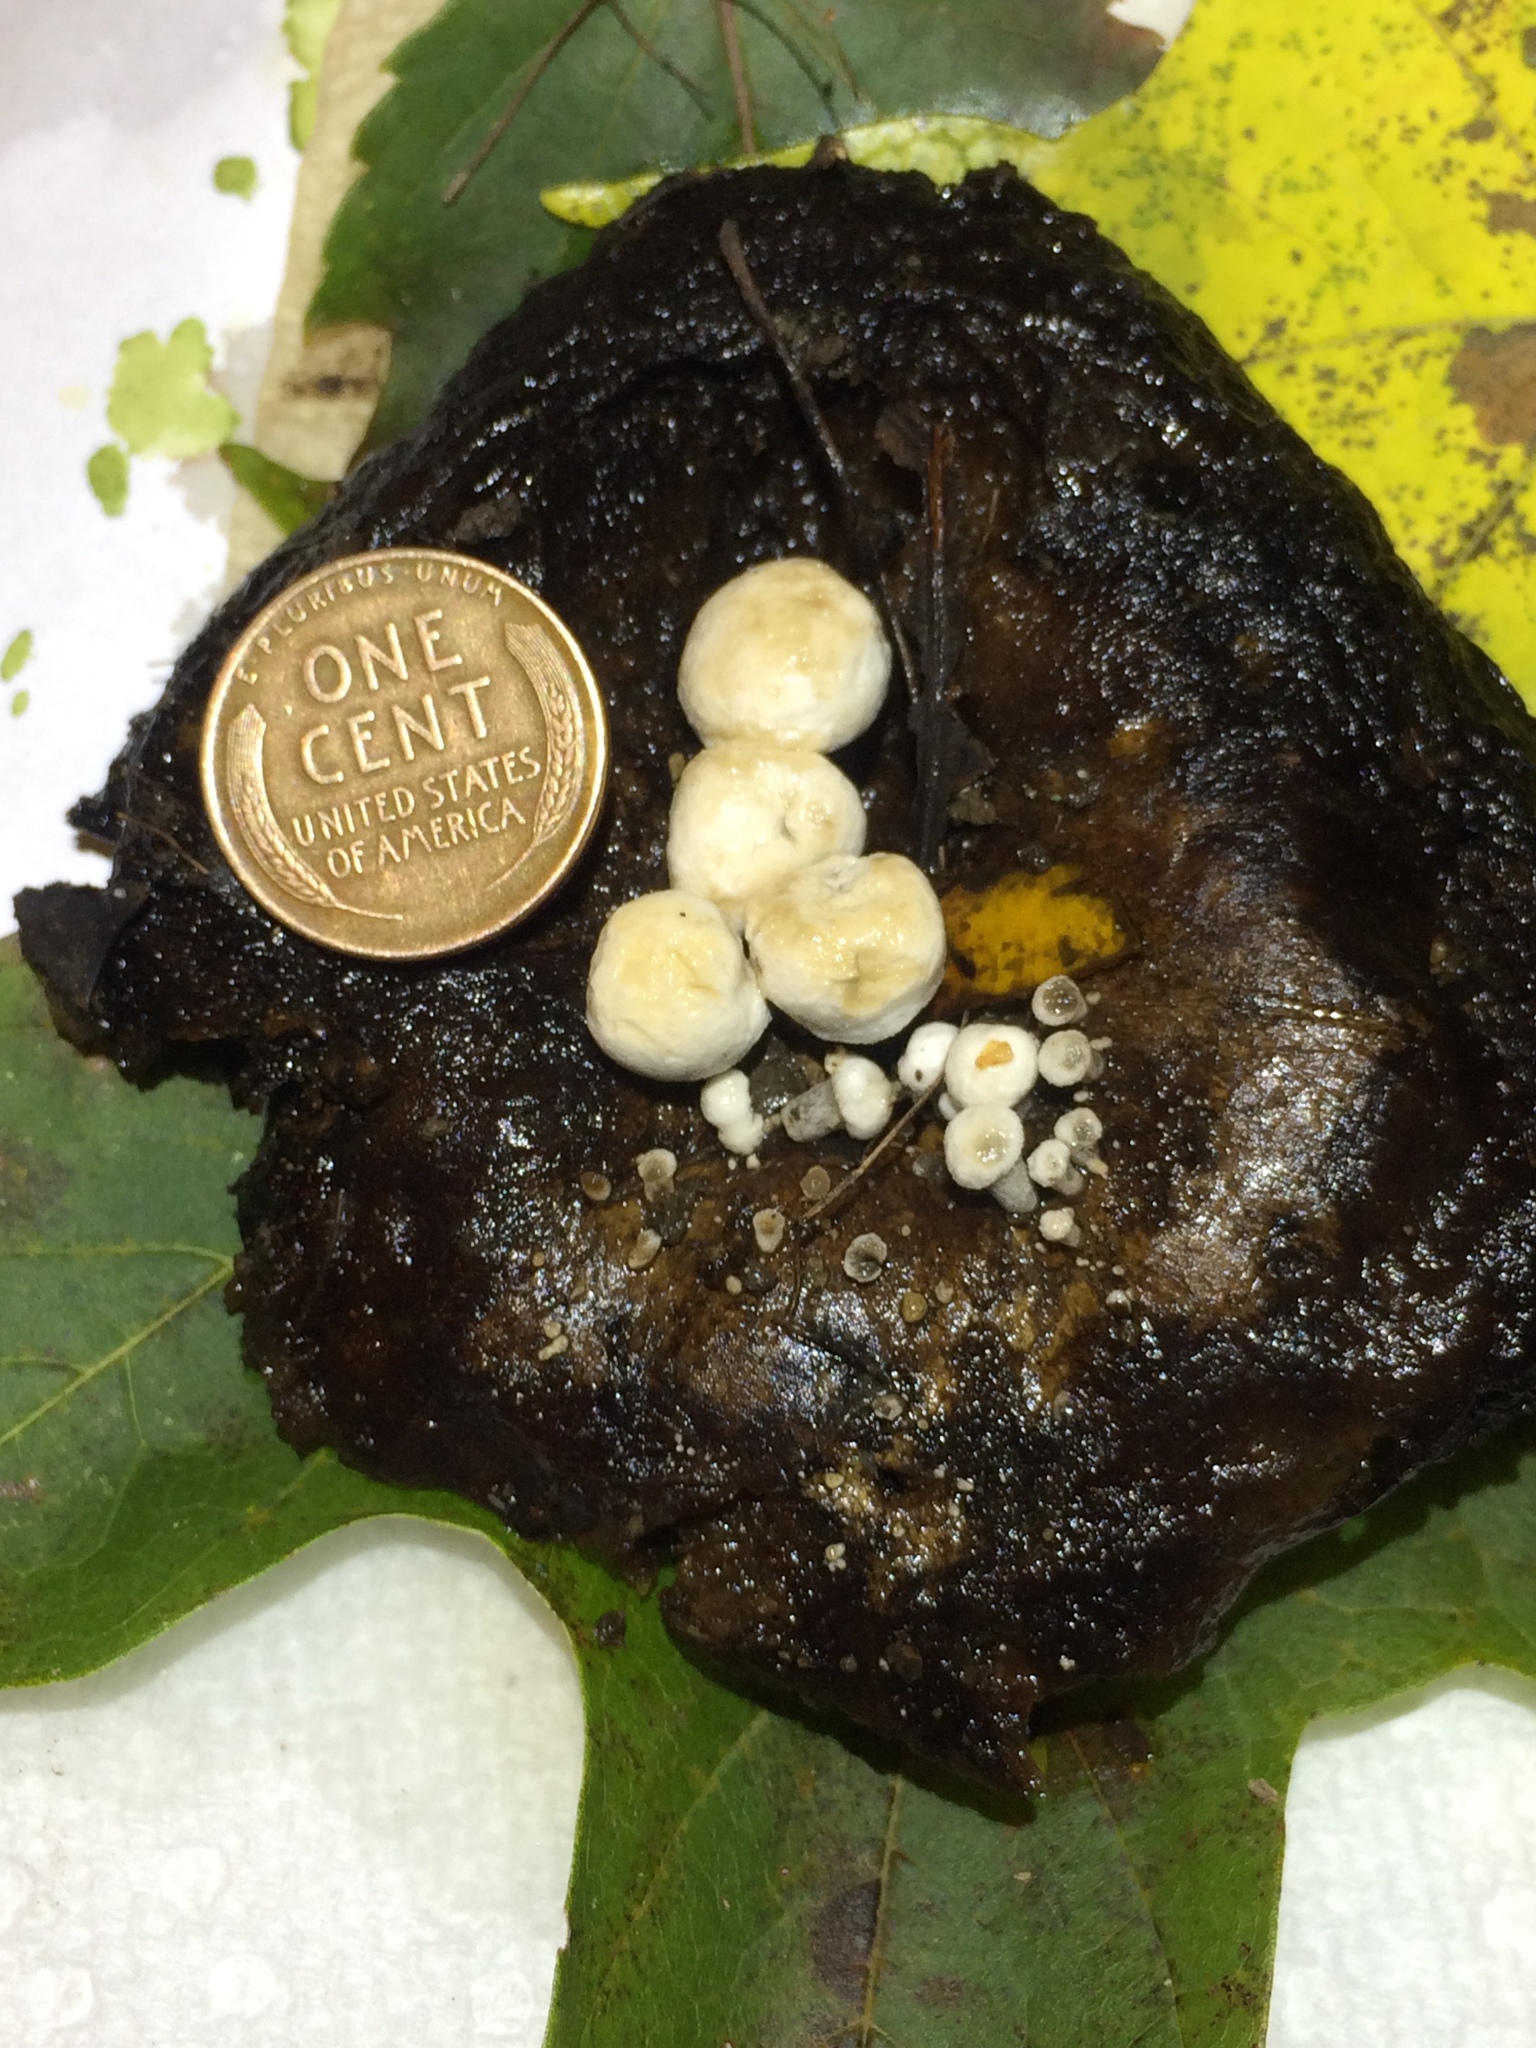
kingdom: Fungi
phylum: Basidiomycota
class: Agaricomycetes
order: Agaricales
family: Lyophyllaceae
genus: Asterophora
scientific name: Asterophora lycoperdoides
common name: Pick-a-back toadstool
